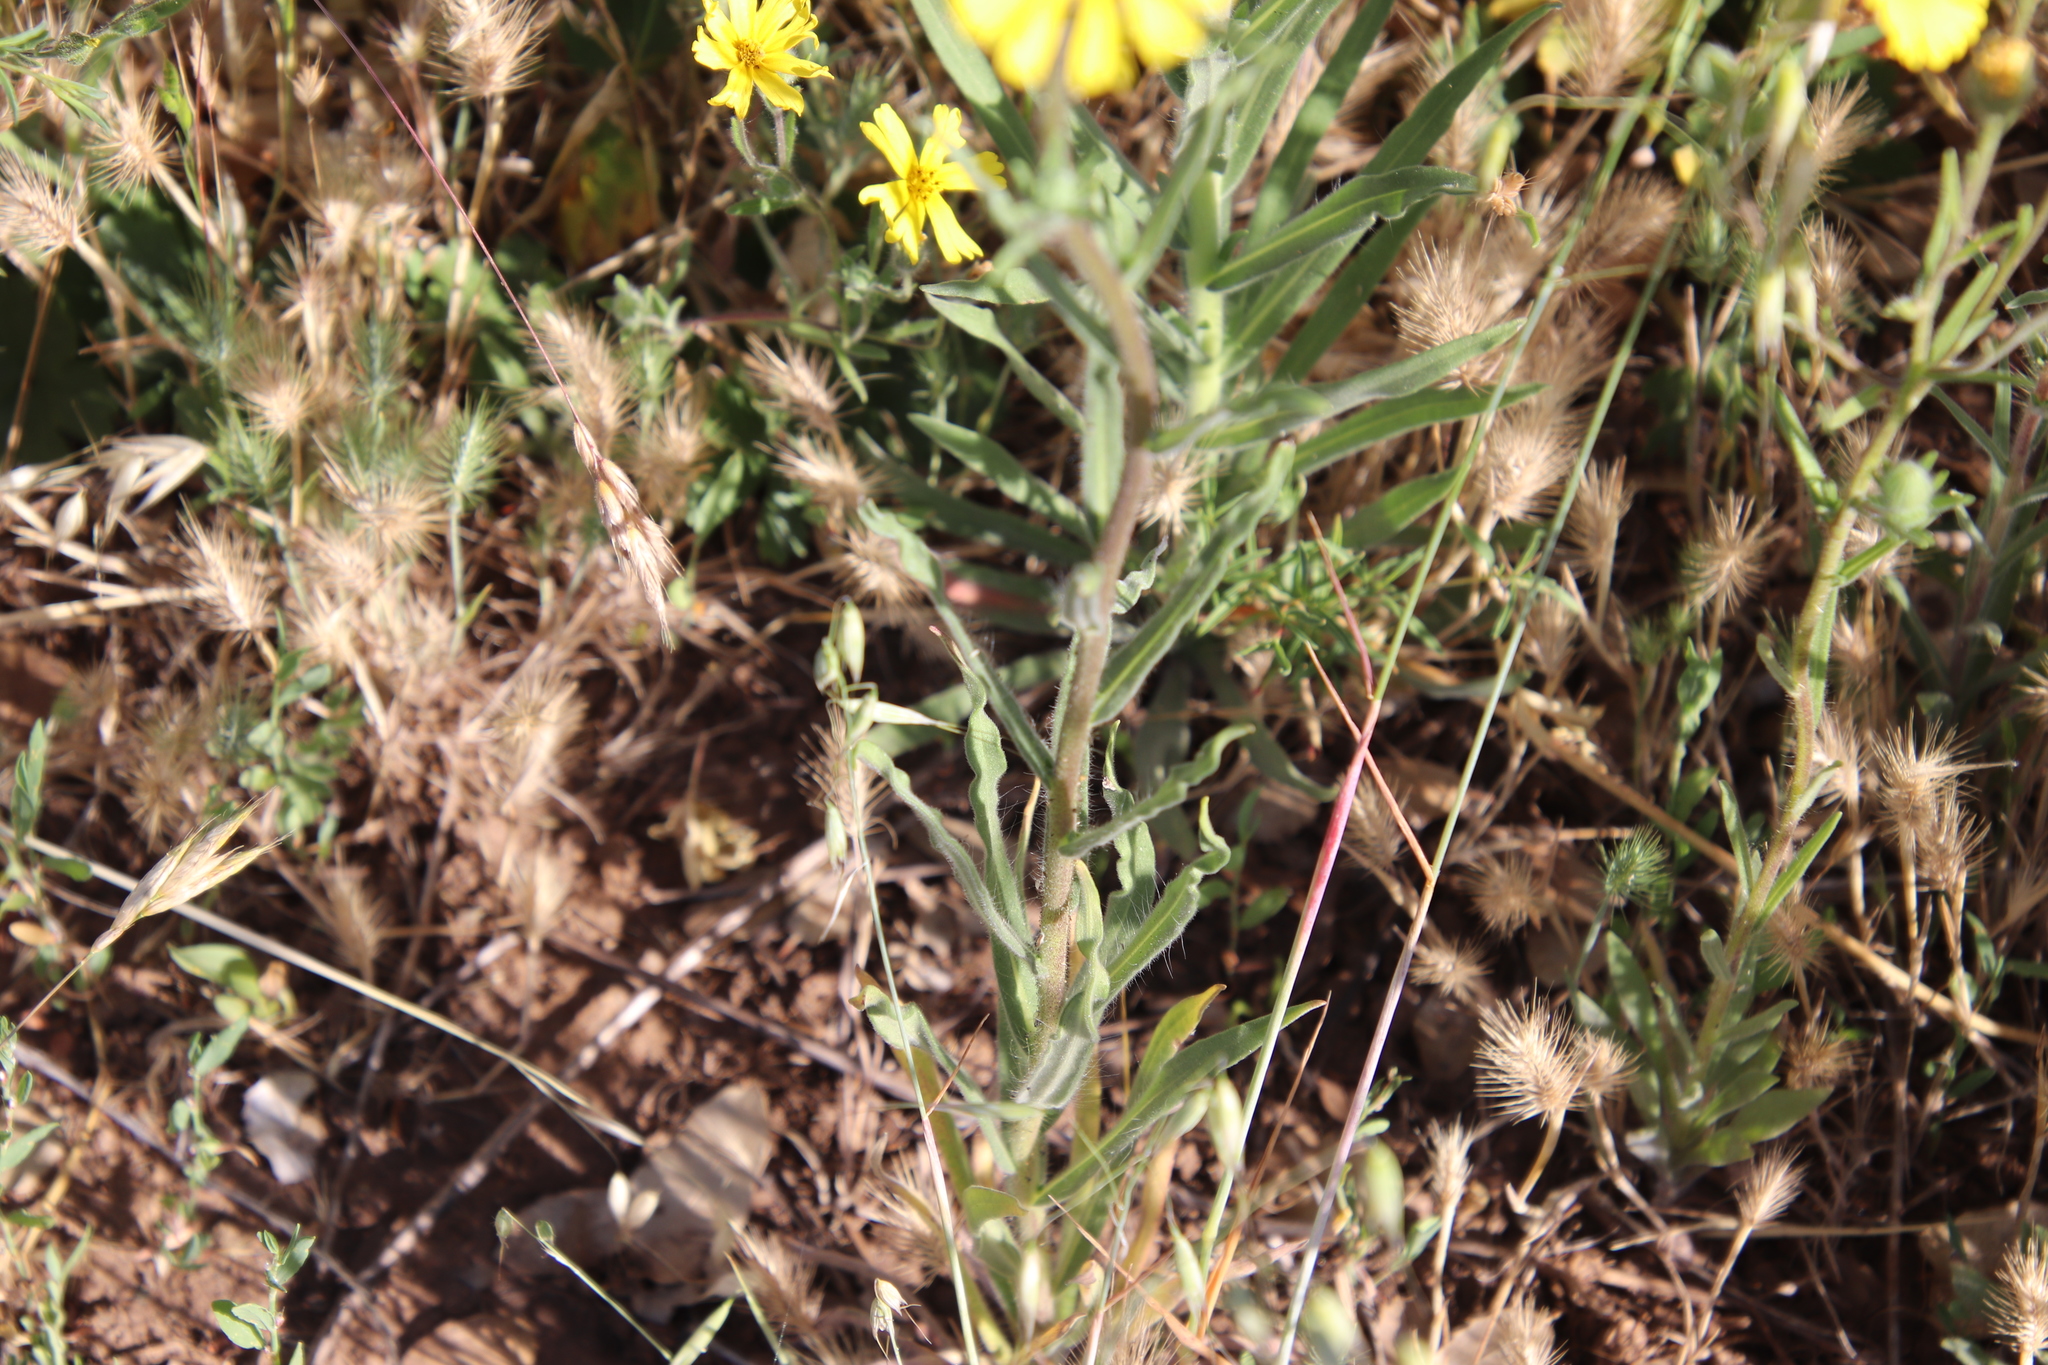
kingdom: Plantae
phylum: Tracheophyta
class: Magnoliopsida
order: Asterales
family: Asteraceae
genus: Madia
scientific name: Madia elegans
